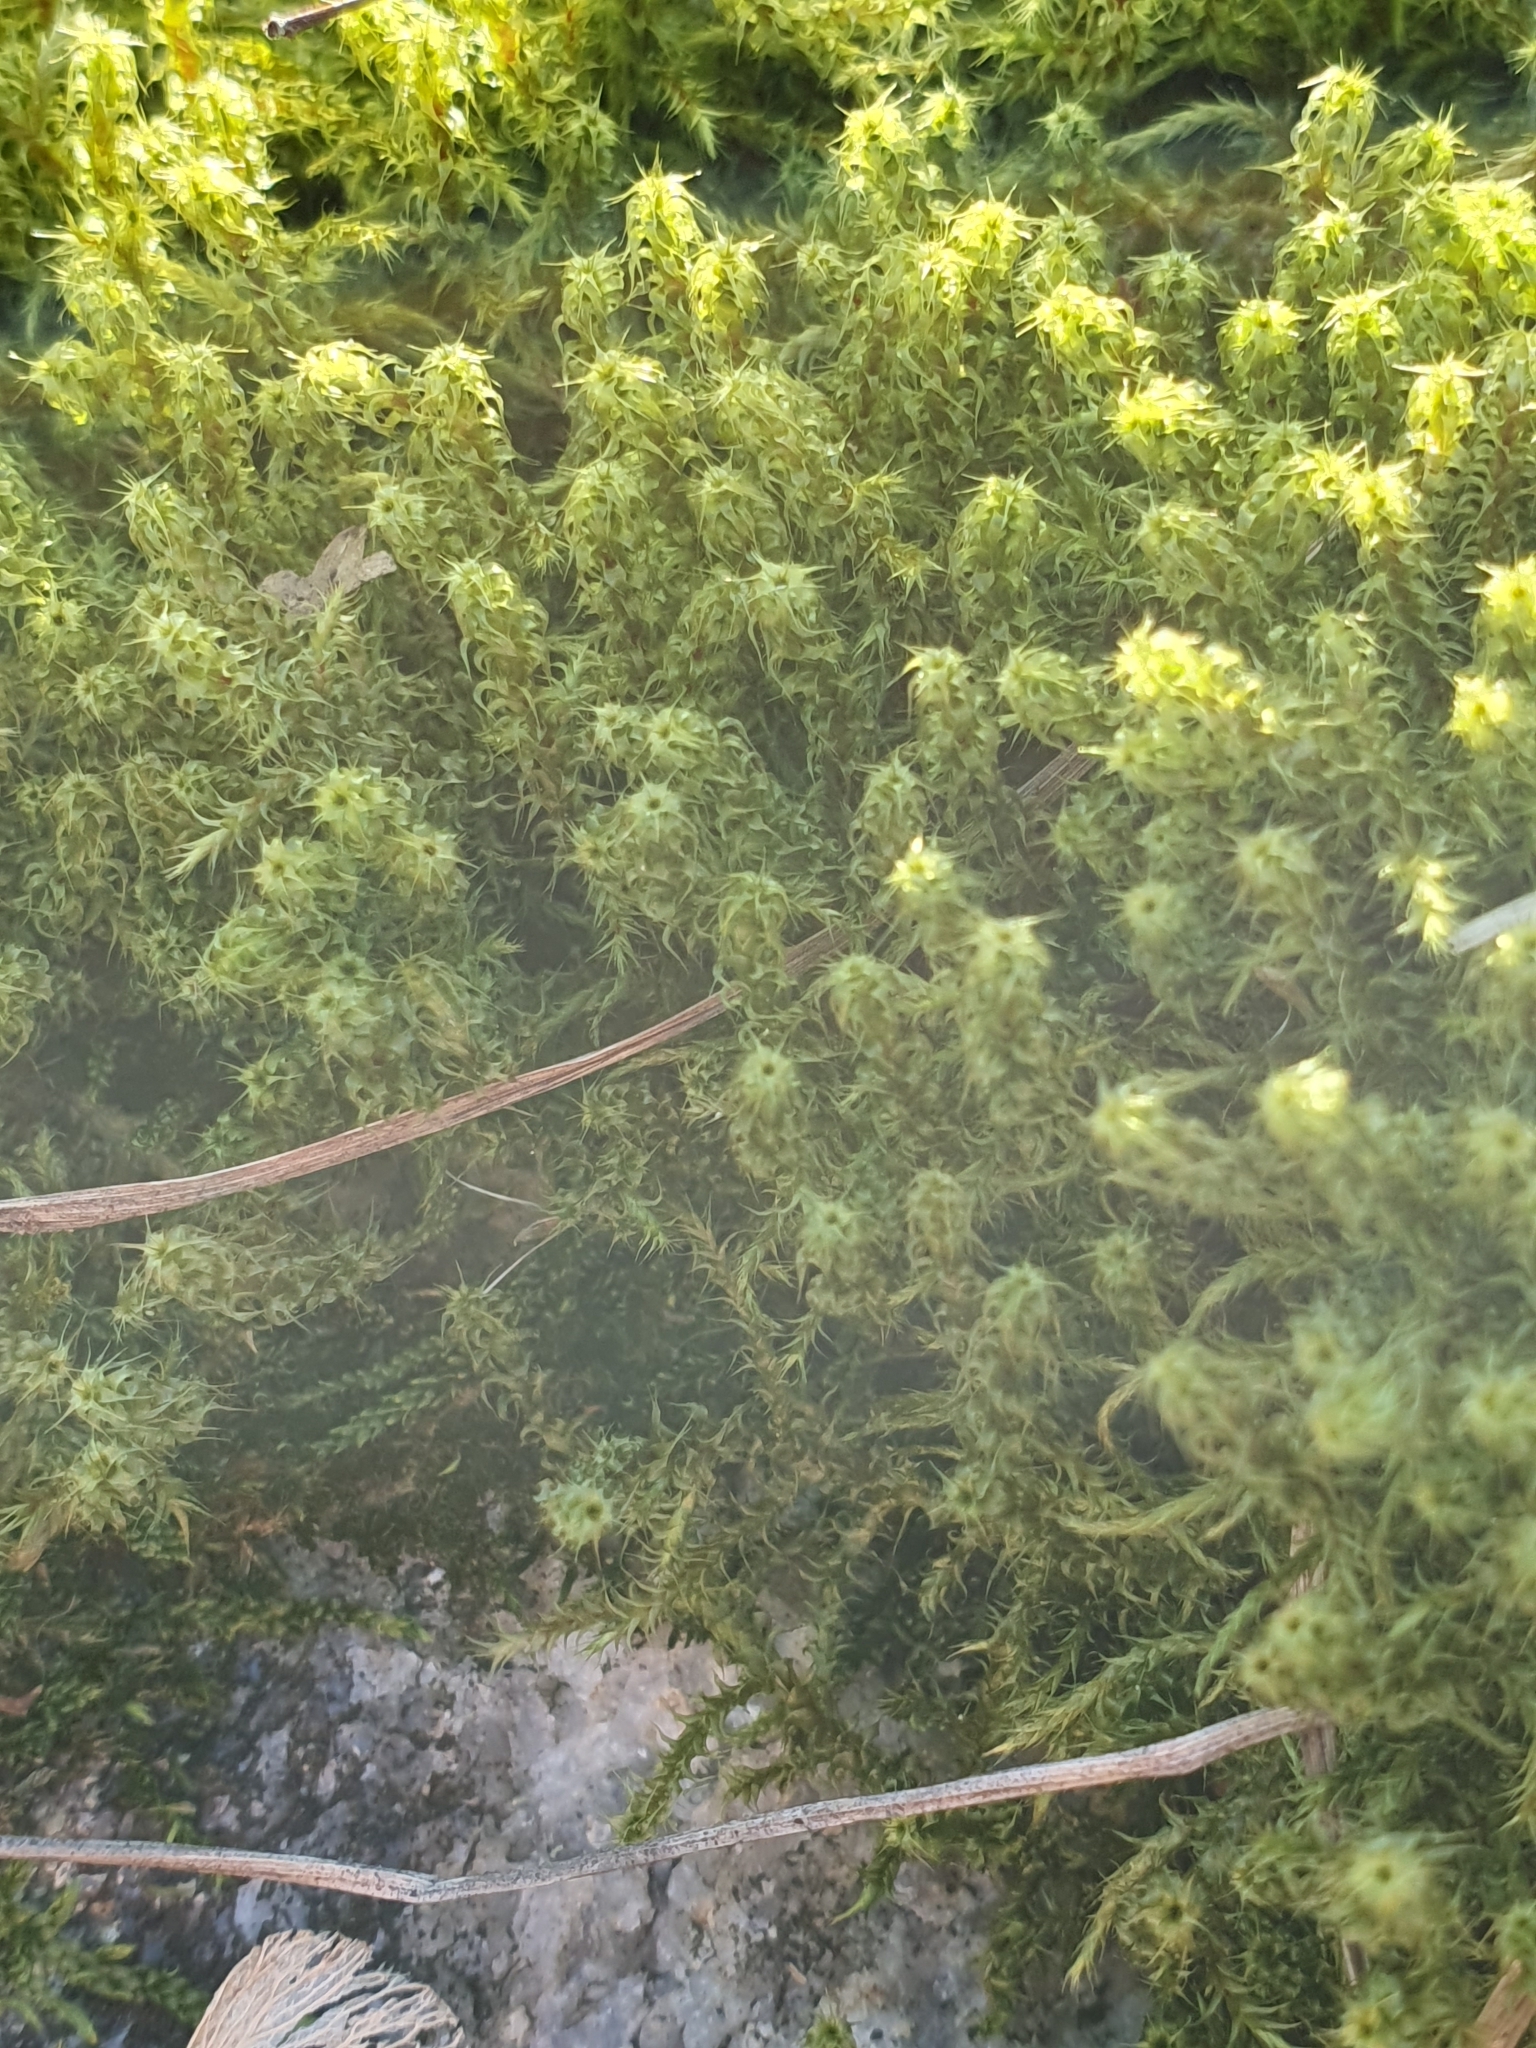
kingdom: Plantae
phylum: Bryophyta
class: Bryopsida
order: Hypnales
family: Hylocomiaceae
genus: Rhytidiadelphus
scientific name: Rhytidiadelphus squarrosus
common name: Springy turf-moss
